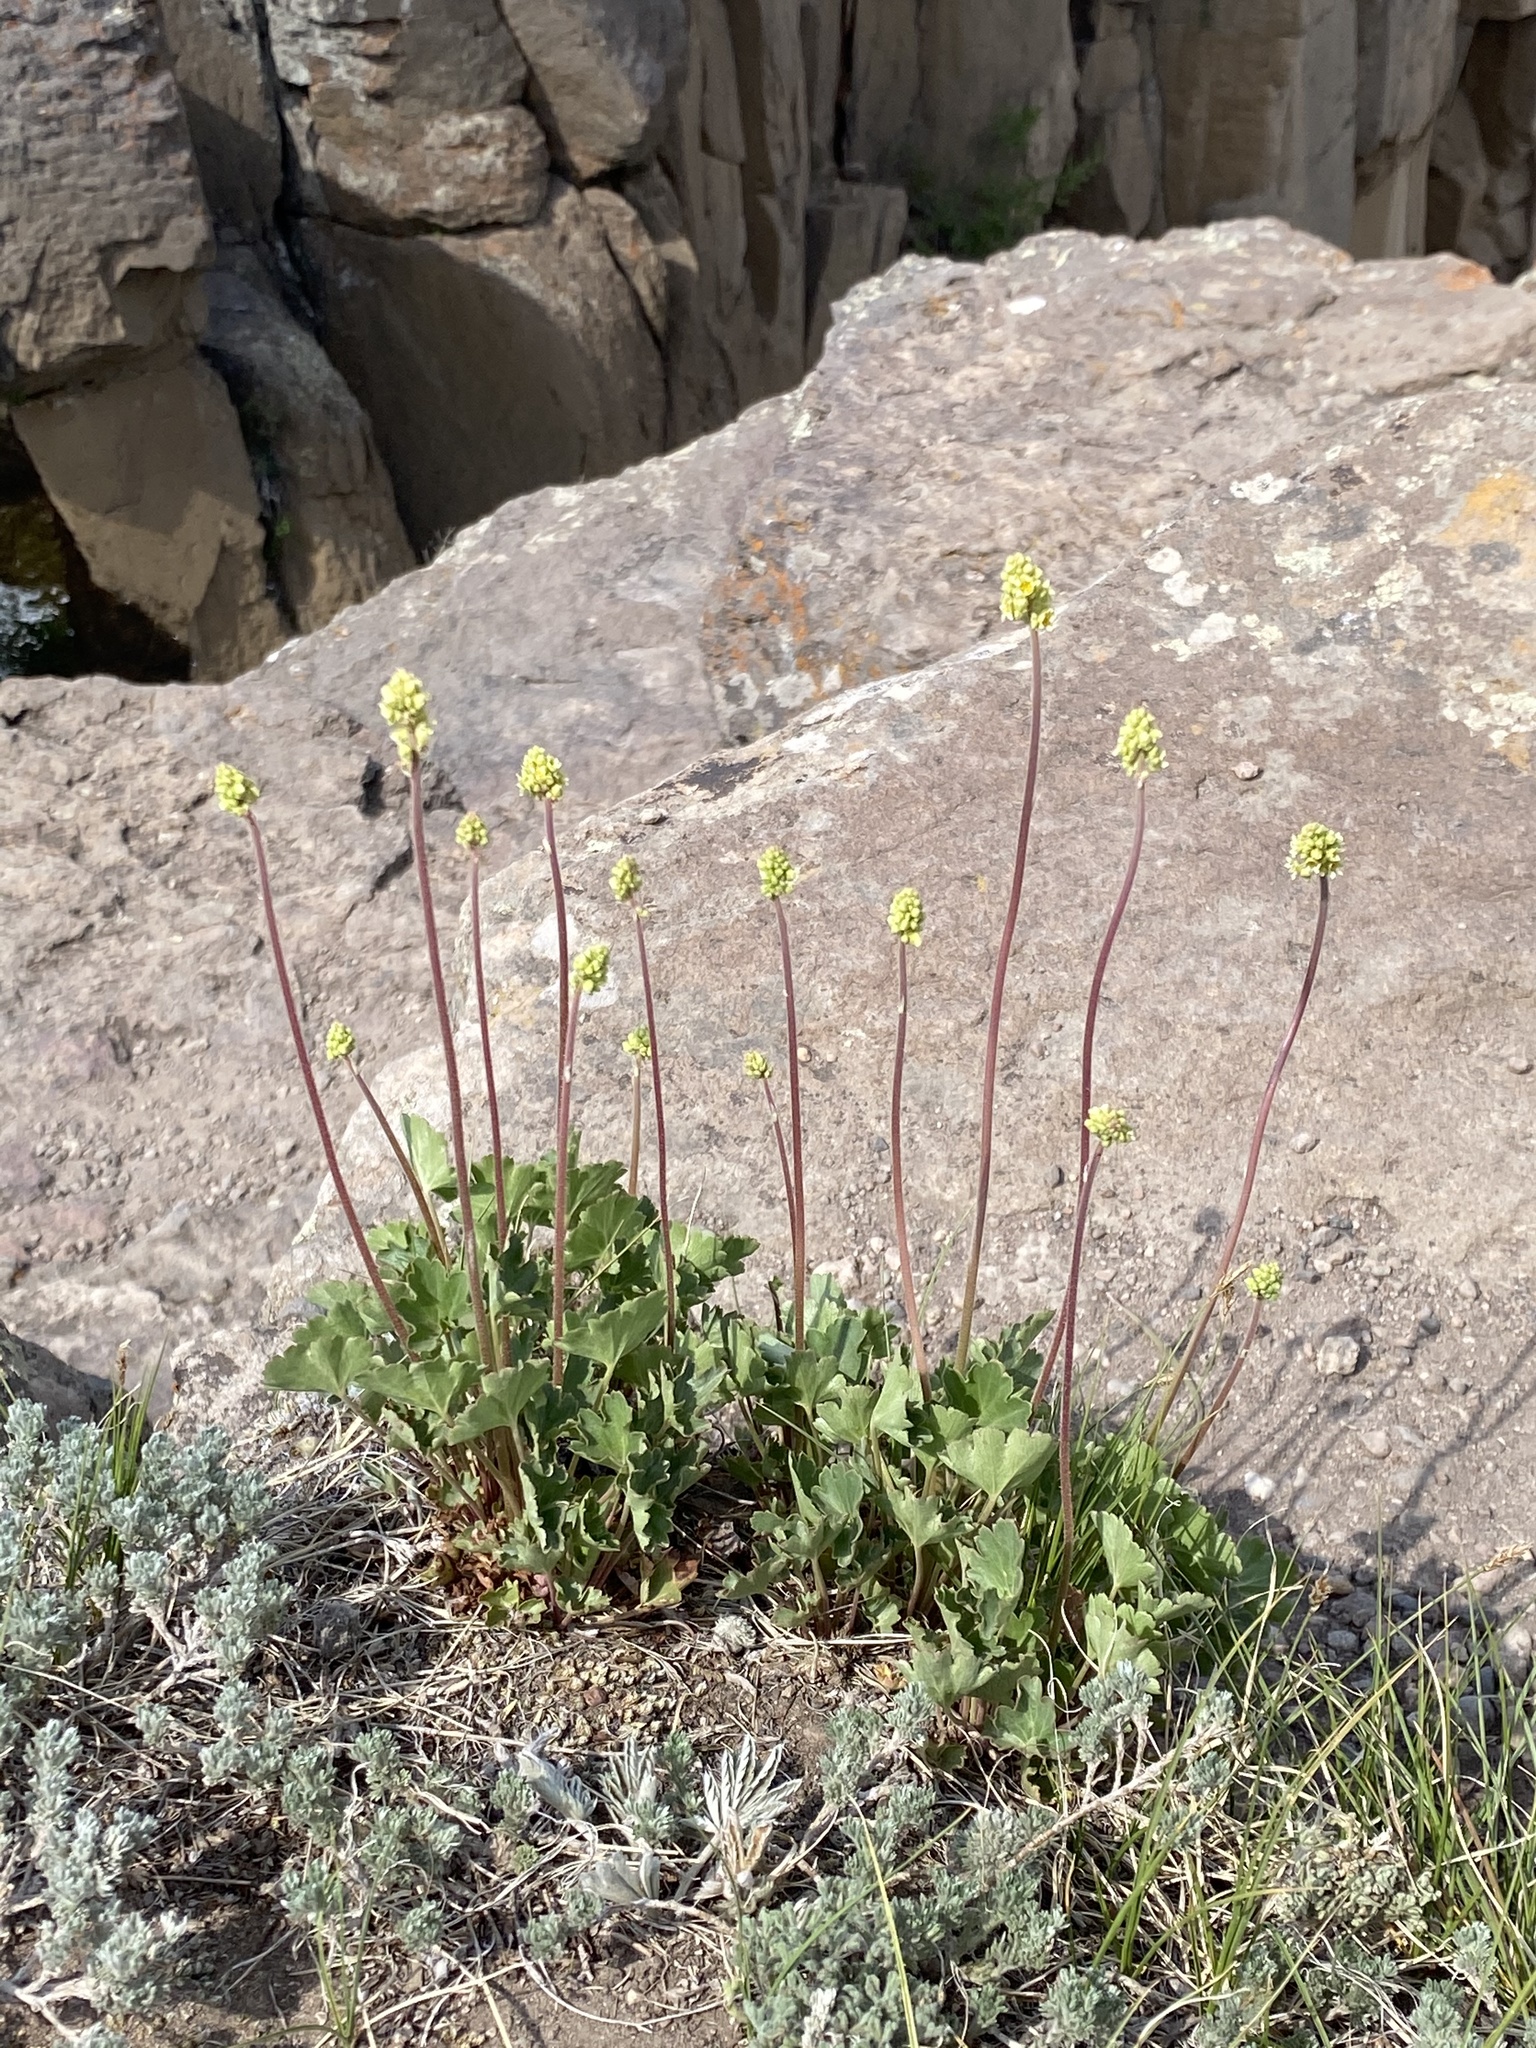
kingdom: Plantae
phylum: Tracheophyta
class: Magnoliopsida
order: Saxifragales
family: Saxifragaceae
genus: Heuchera
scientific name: Heuchera parvifolia
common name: Common alumroot
